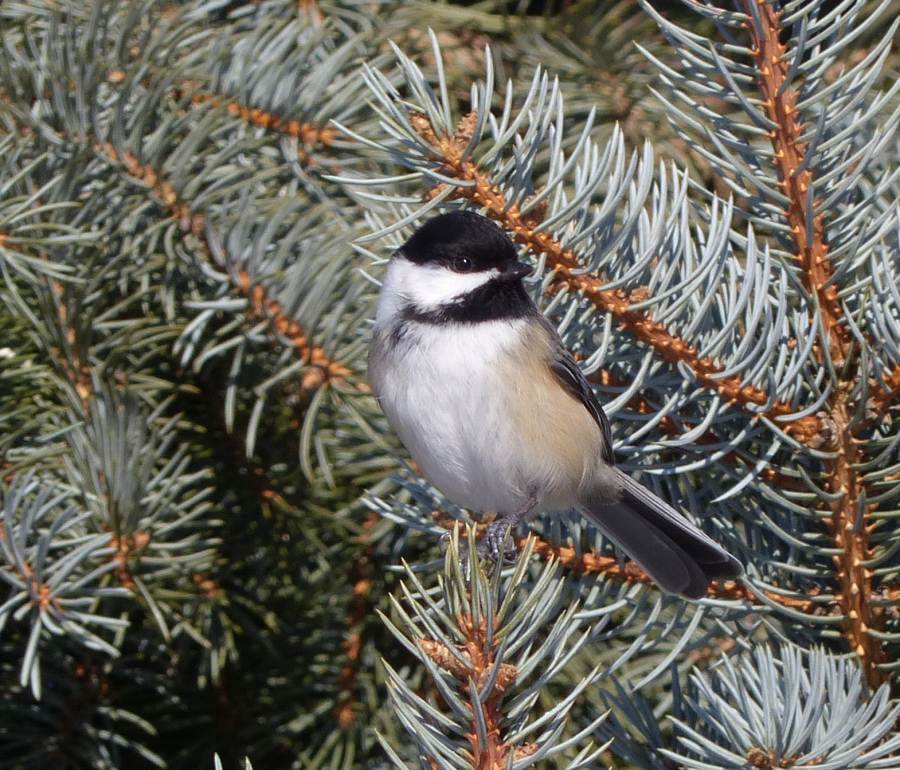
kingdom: Animalia
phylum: Chordata
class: Aves
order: Passeriformes
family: Paridae
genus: Poecile
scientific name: Poecile atricapillus
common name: Black-capped chickadee
